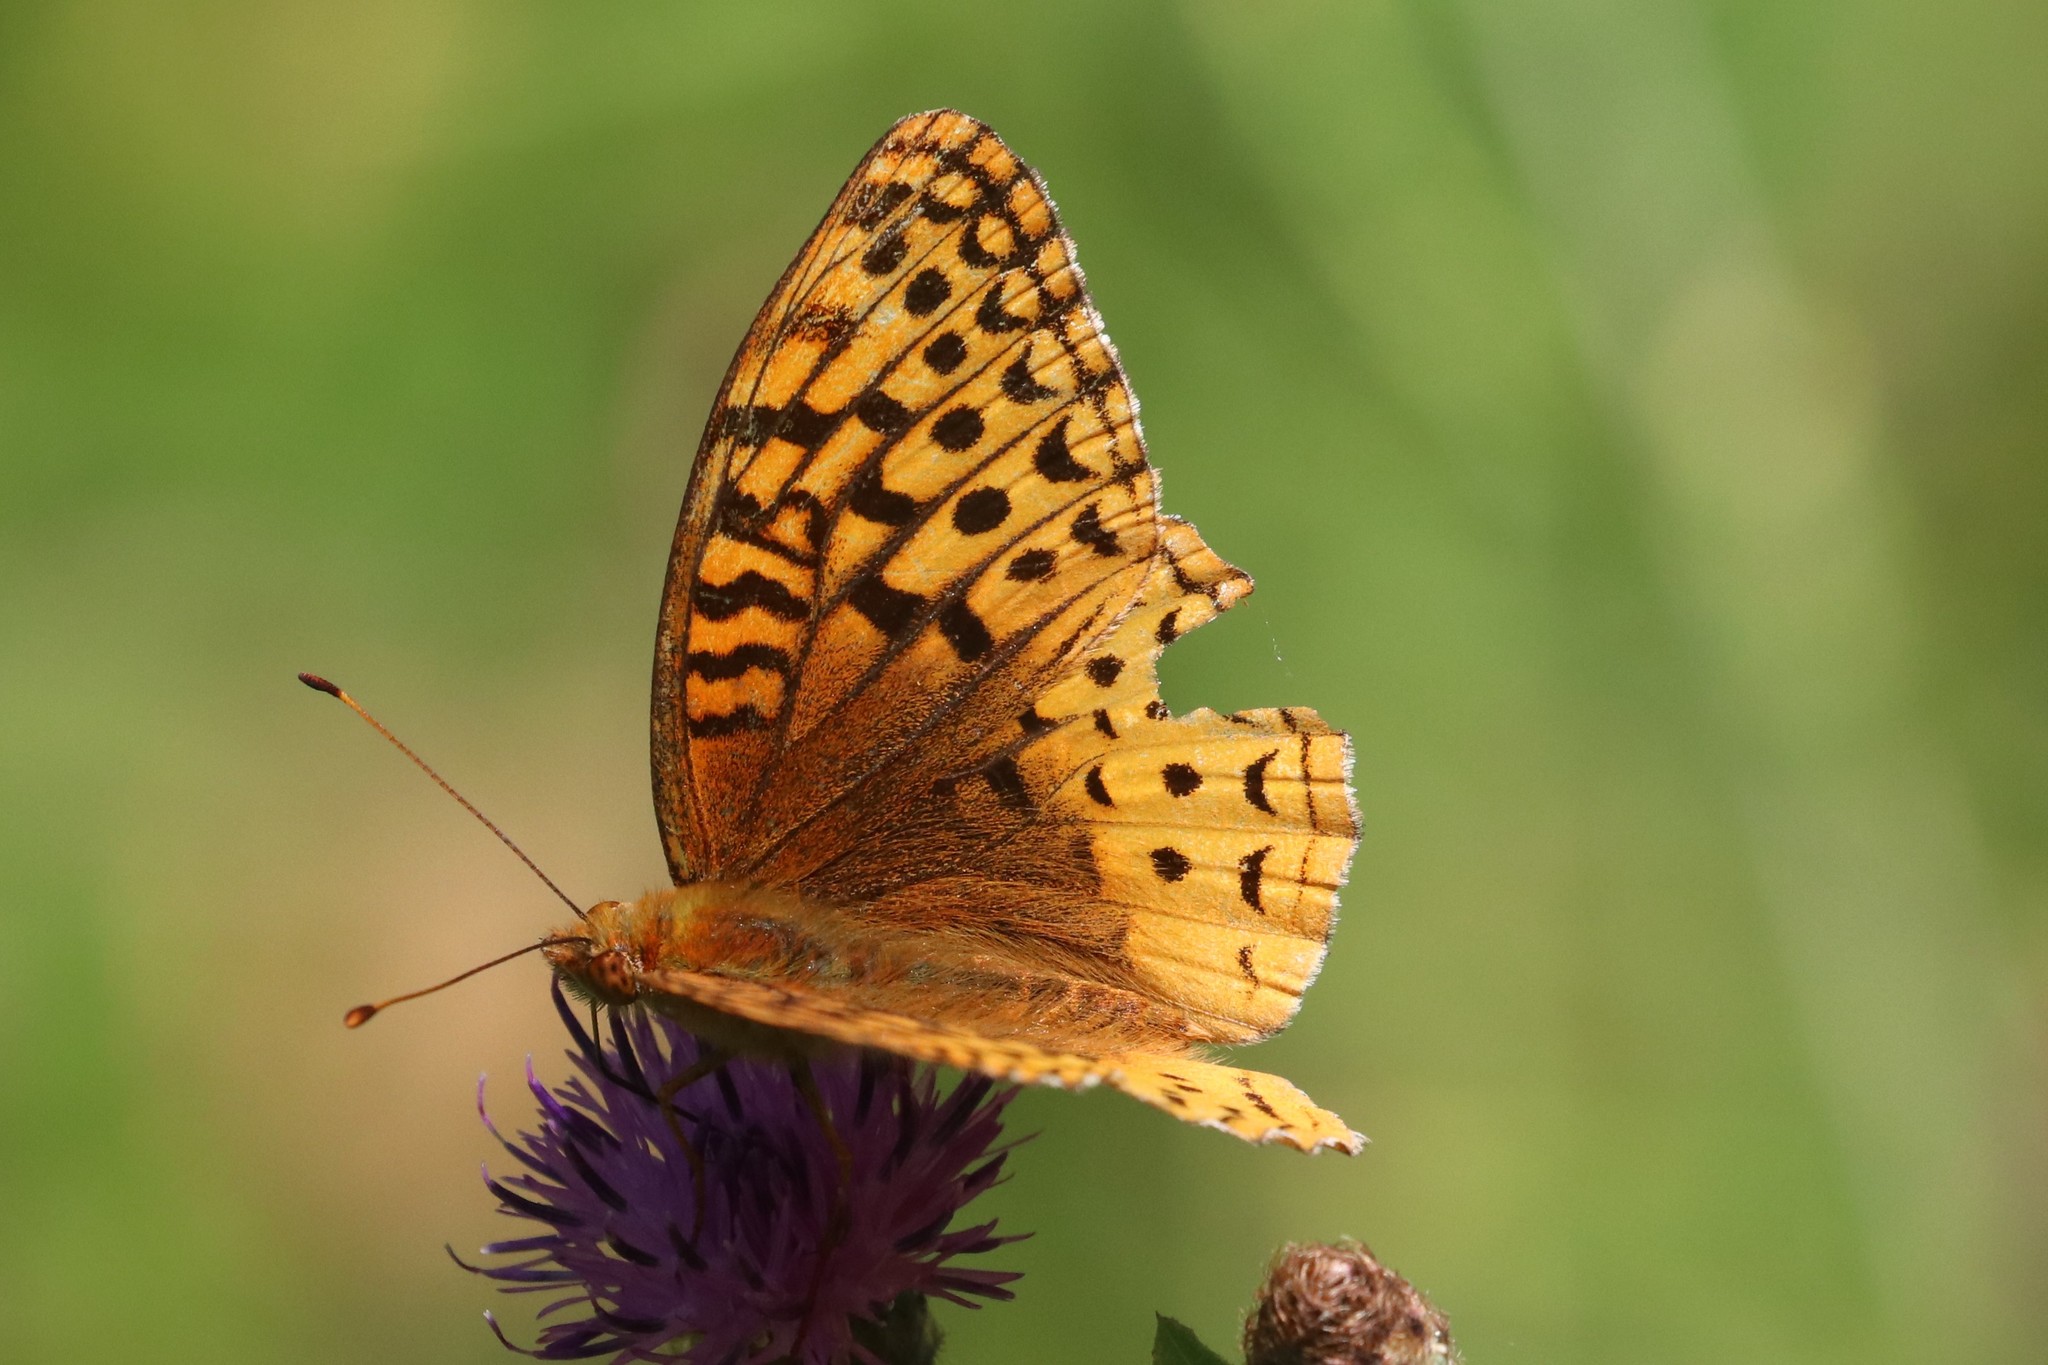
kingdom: Animalia
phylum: Arthropoda
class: Insecta
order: Lepidoptera
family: Nymphalidae
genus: Speyeria
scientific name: Speyeria cybele
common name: Great spangled fritillary
